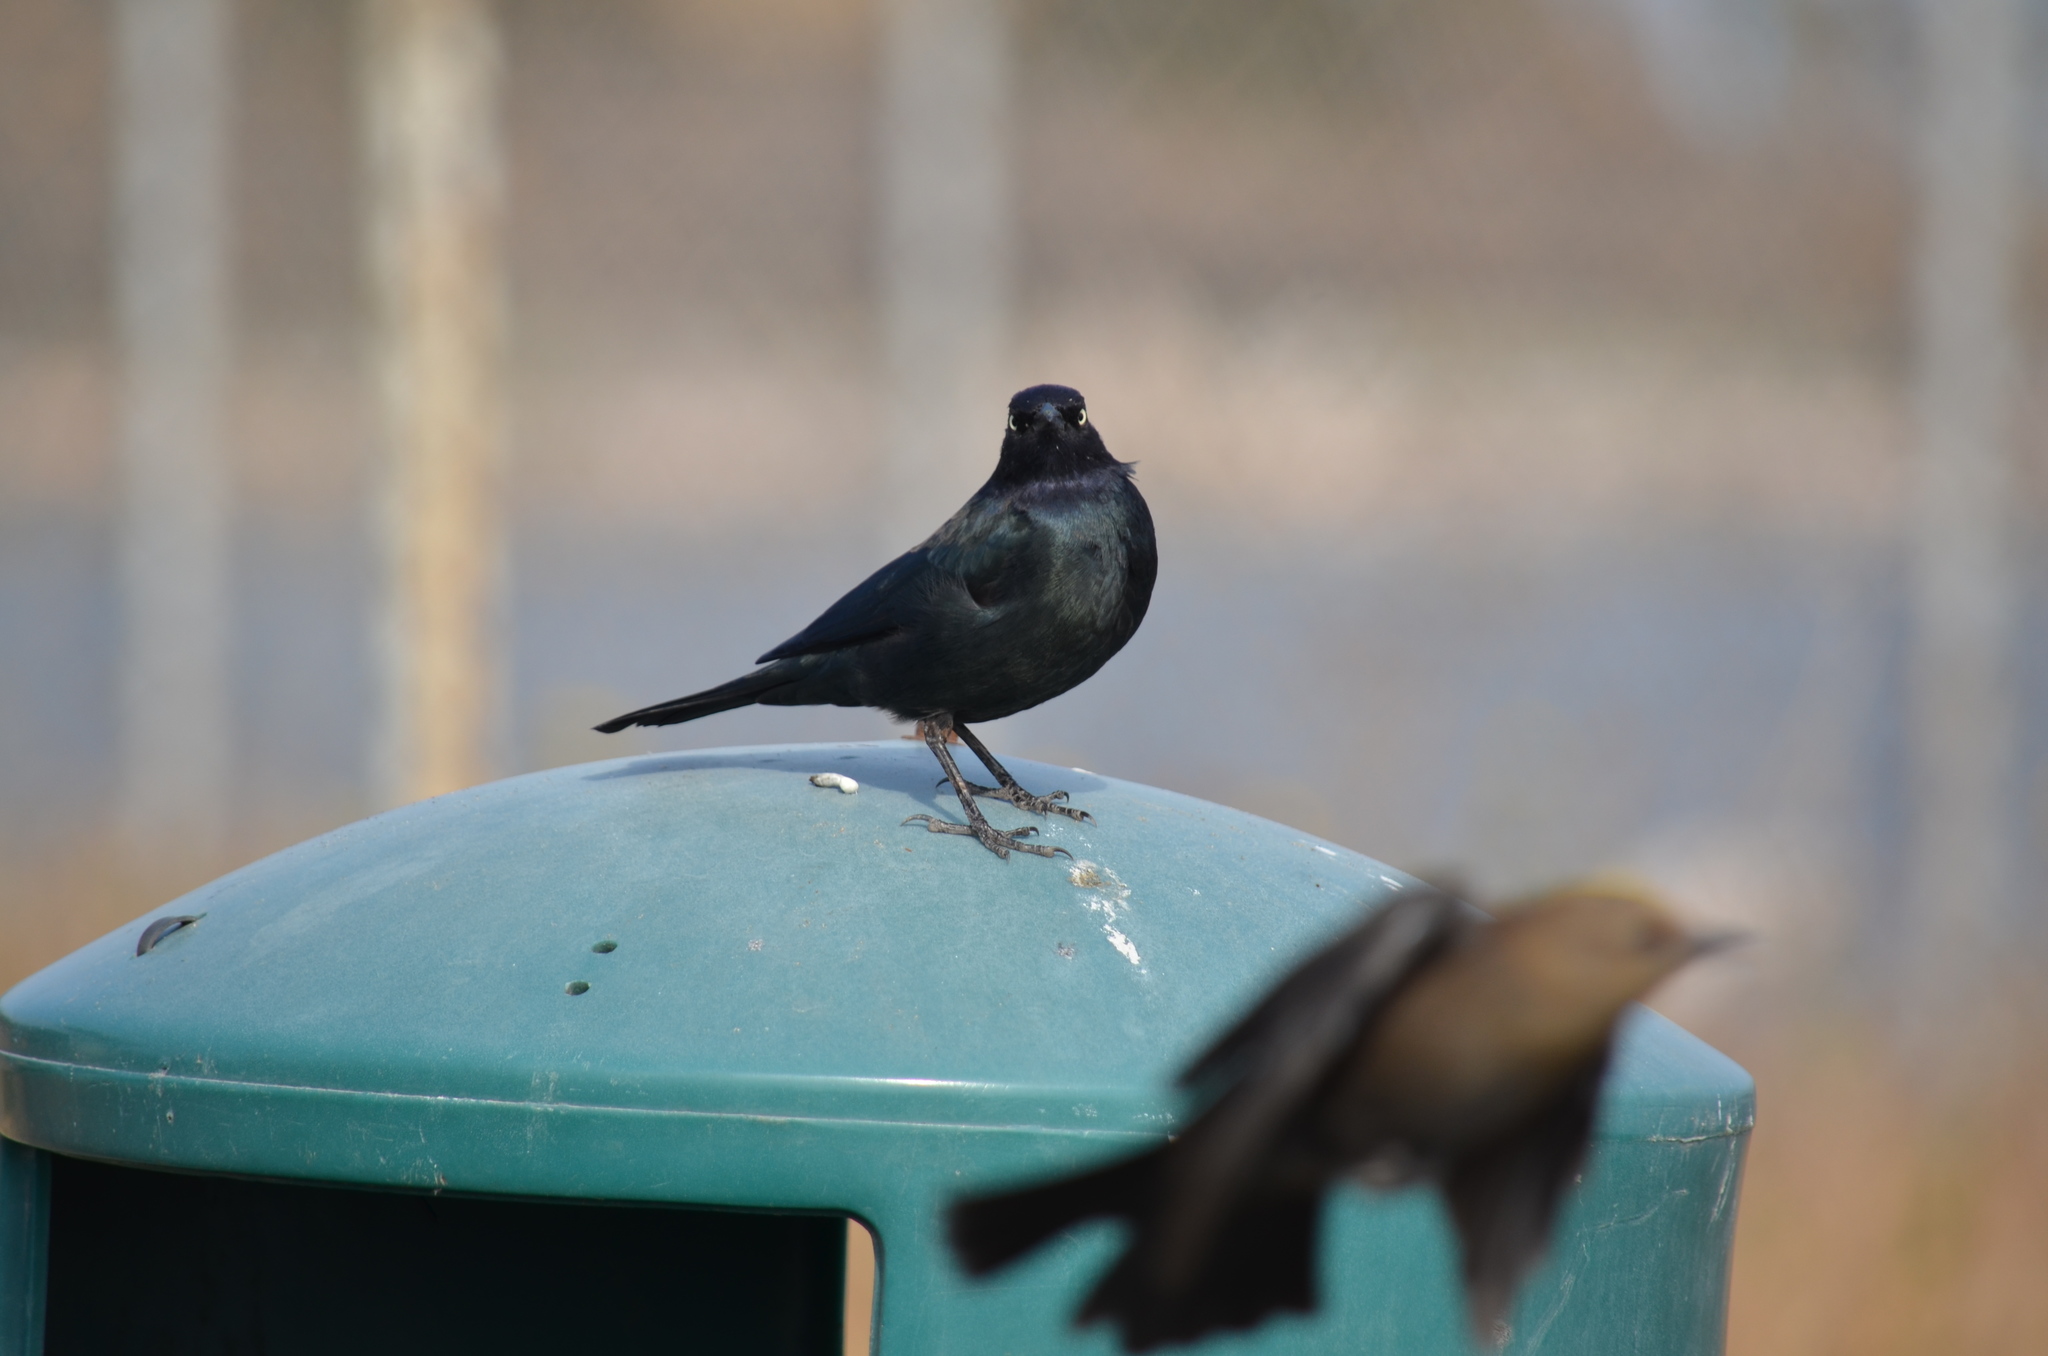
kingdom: Animalia
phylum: Chordata
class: Aves
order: Passeriformes
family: Icteridae
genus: Euphagus
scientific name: Euphagus cyanocephalus
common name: Brewer's blackbird
